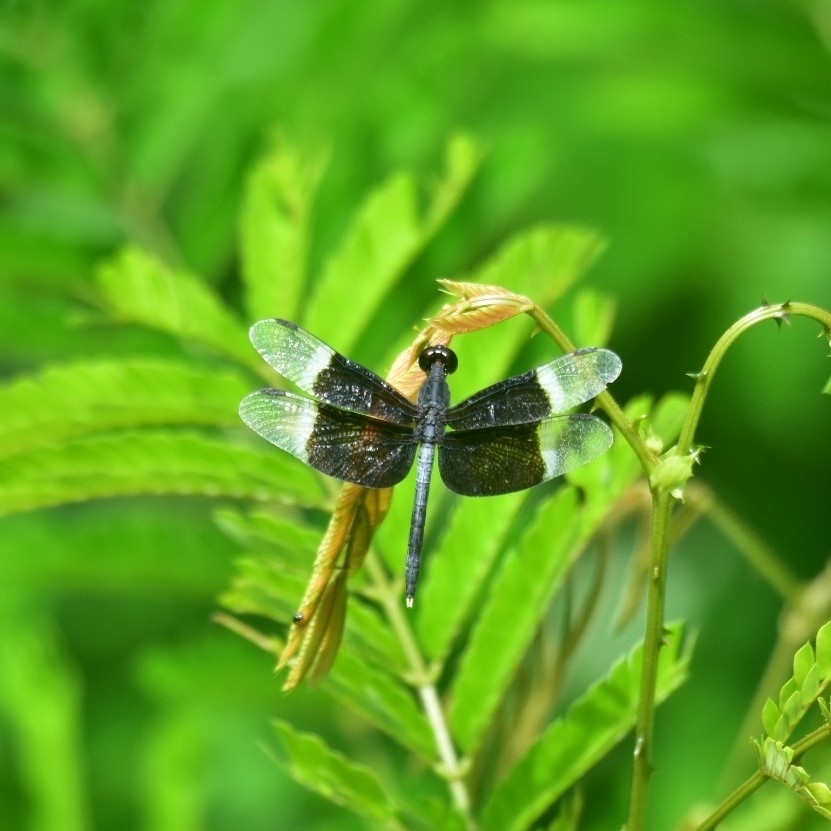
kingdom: Animalia
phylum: Arthropoda
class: Insecta
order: Odonata
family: Libellulidae
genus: Neurothemis
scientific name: Neurothemis tullia
